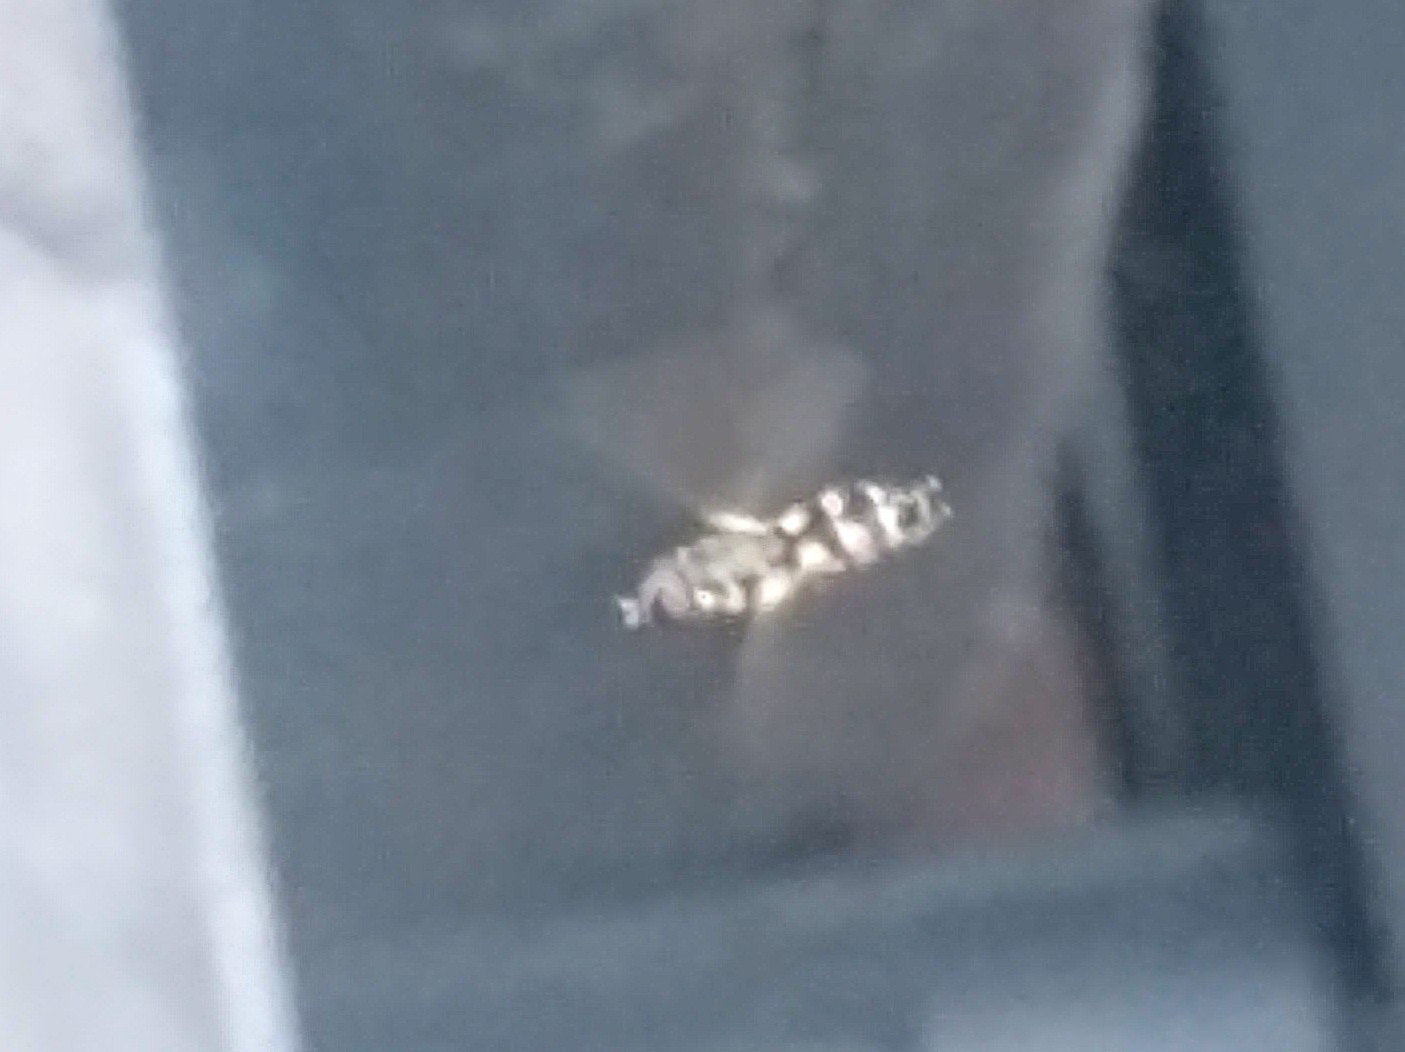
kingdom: Animalia
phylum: Arthropoda
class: Insecta
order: Diptera
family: Syrphidae
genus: Syritta
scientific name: Syritta pipiens
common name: Hover fly
